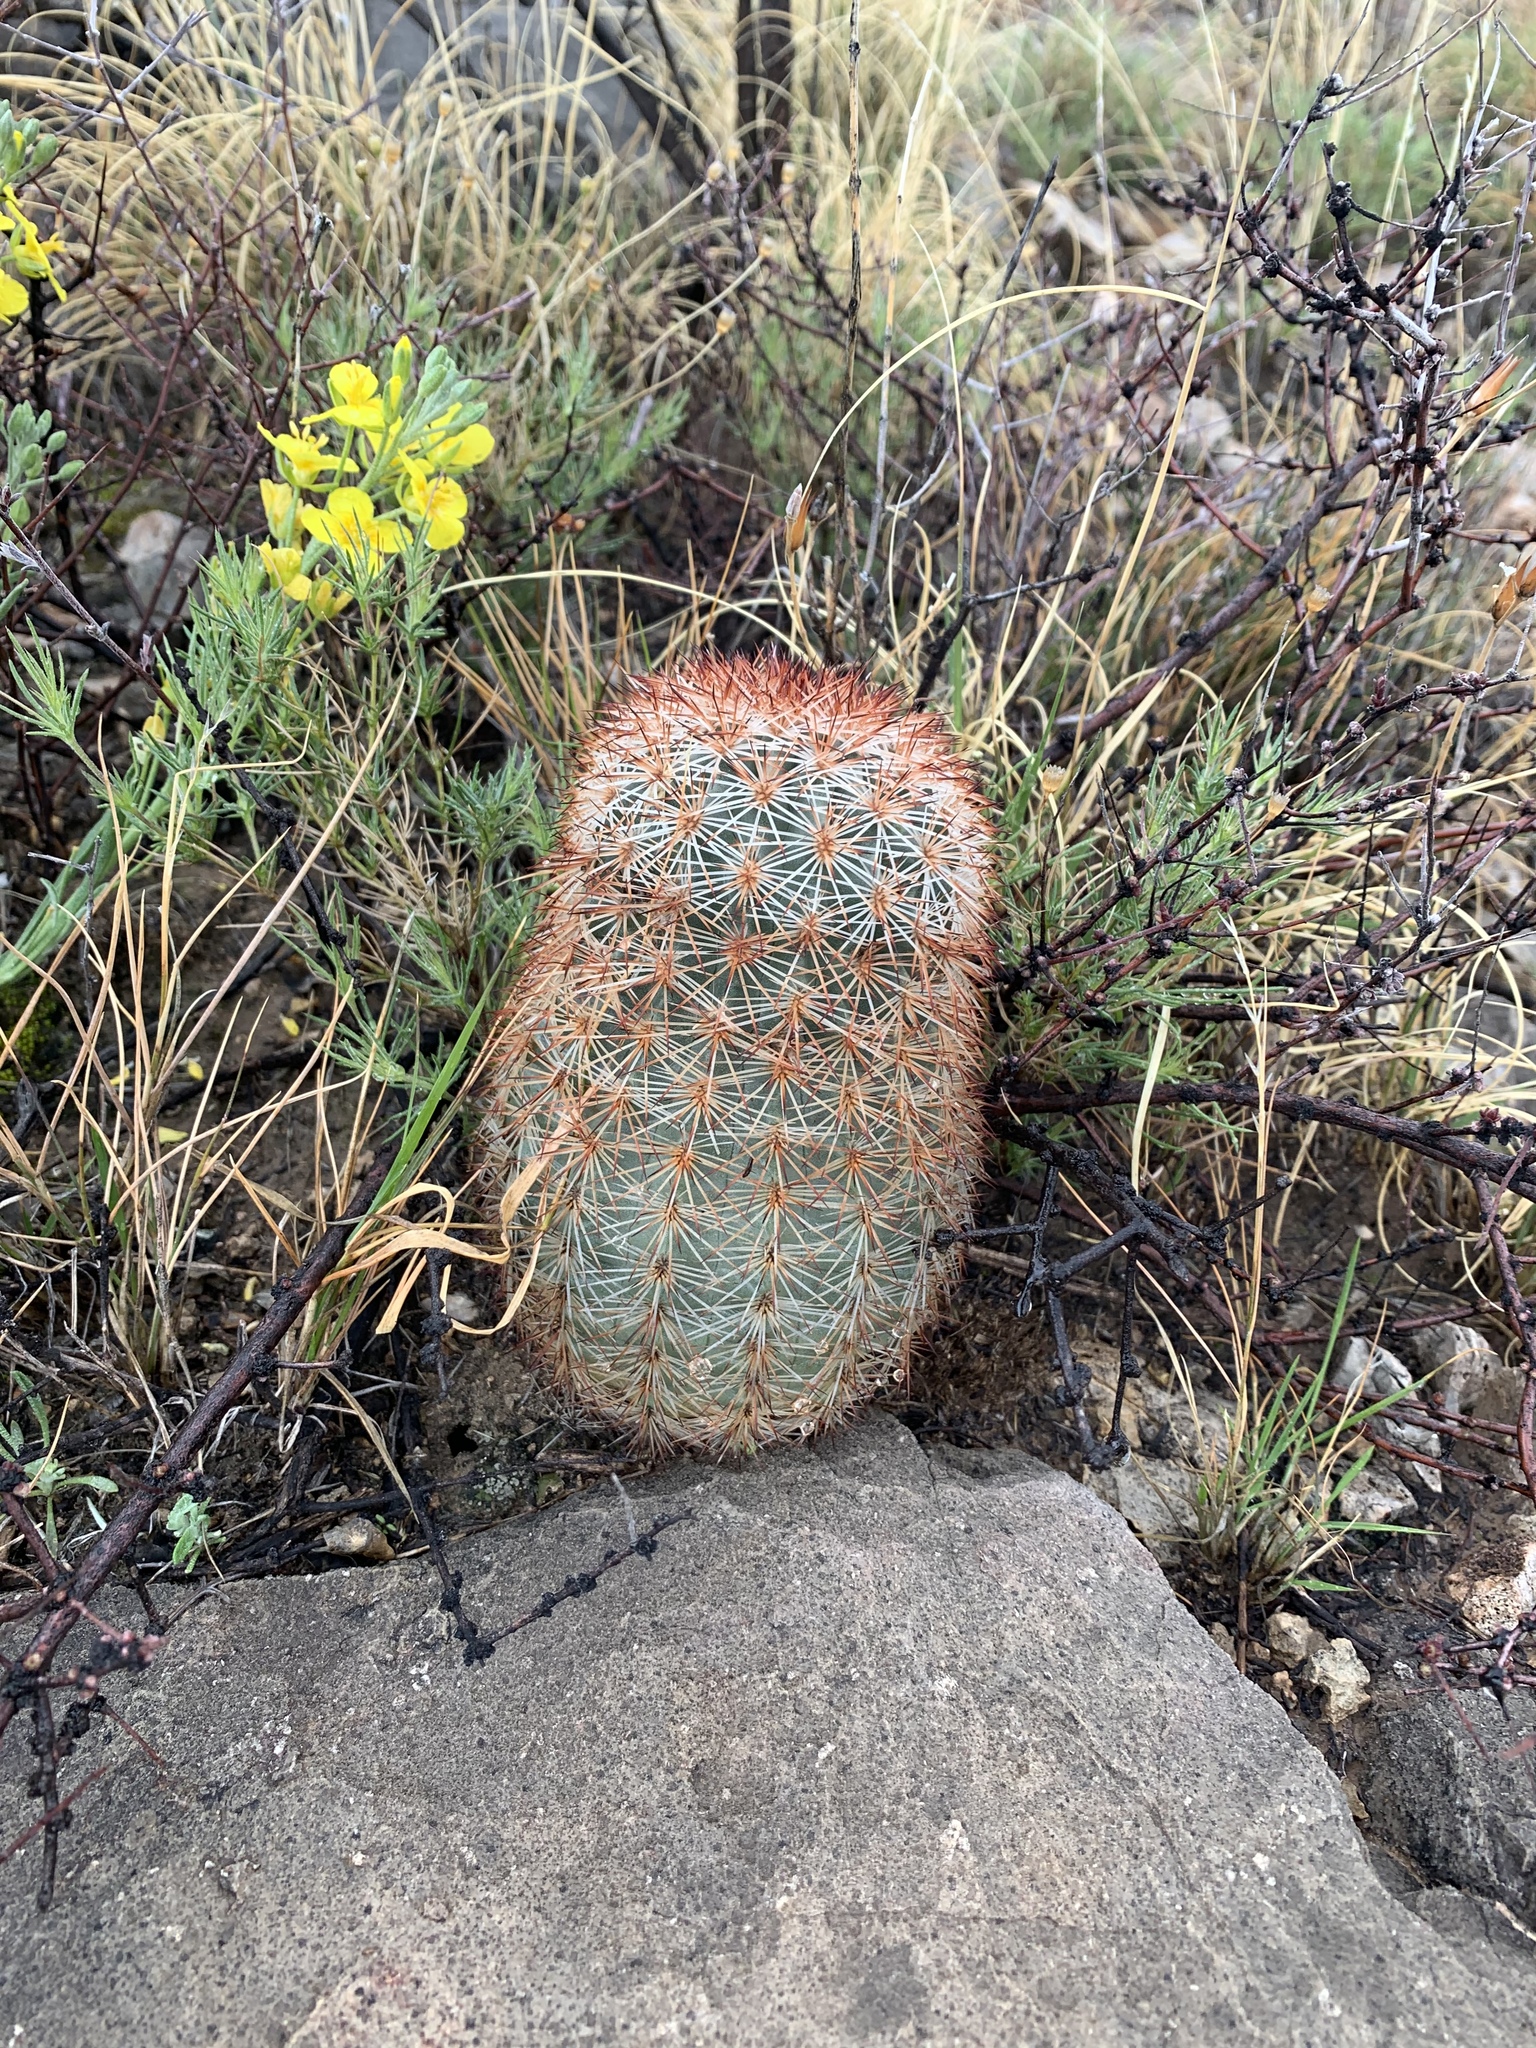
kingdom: Plantae
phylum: Tracheophyta
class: Magnoliopsida
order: Caryophyllales
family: Cactaceae
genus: Echinocereus
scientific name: Echinocereus dasyacanthus
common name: Spiny hedgehog cactus
